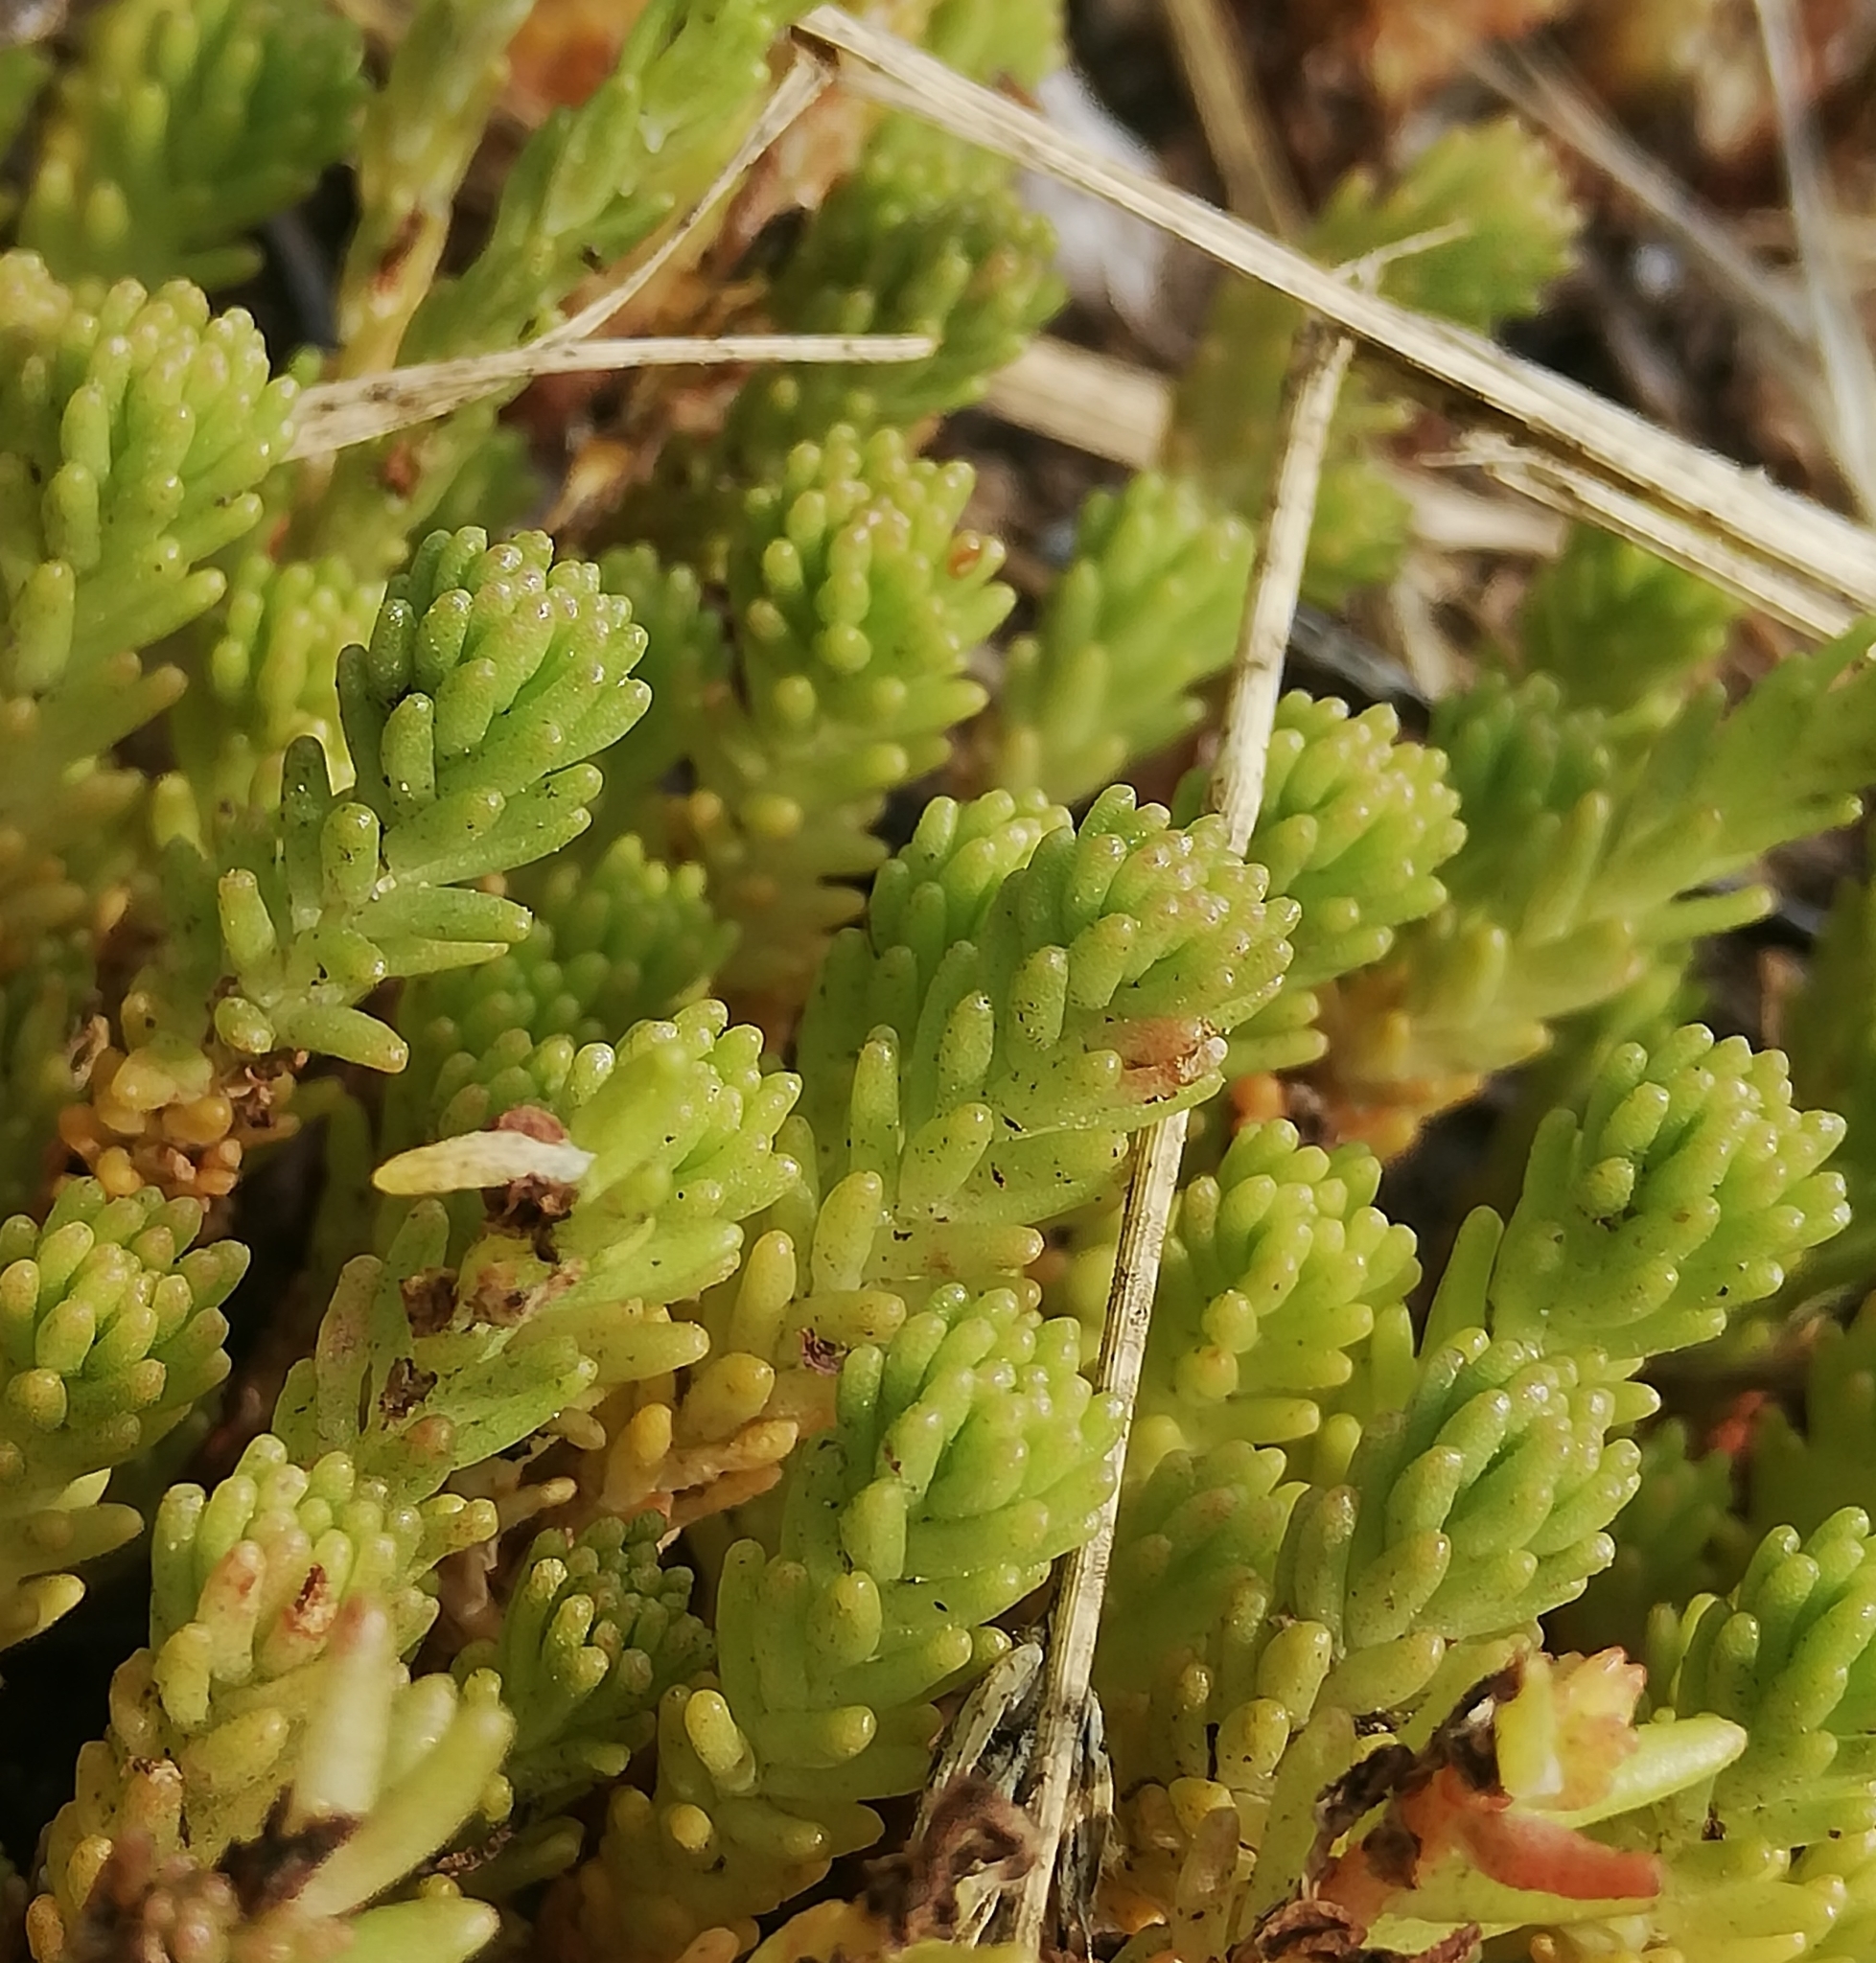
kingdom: Plantae
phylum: Tracheophyta
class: Magnoliopsida
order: Saxifragales
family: Crassulaceae
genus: Sedum
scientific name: Sedum sexangulare
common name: Tasteless stonecrop
